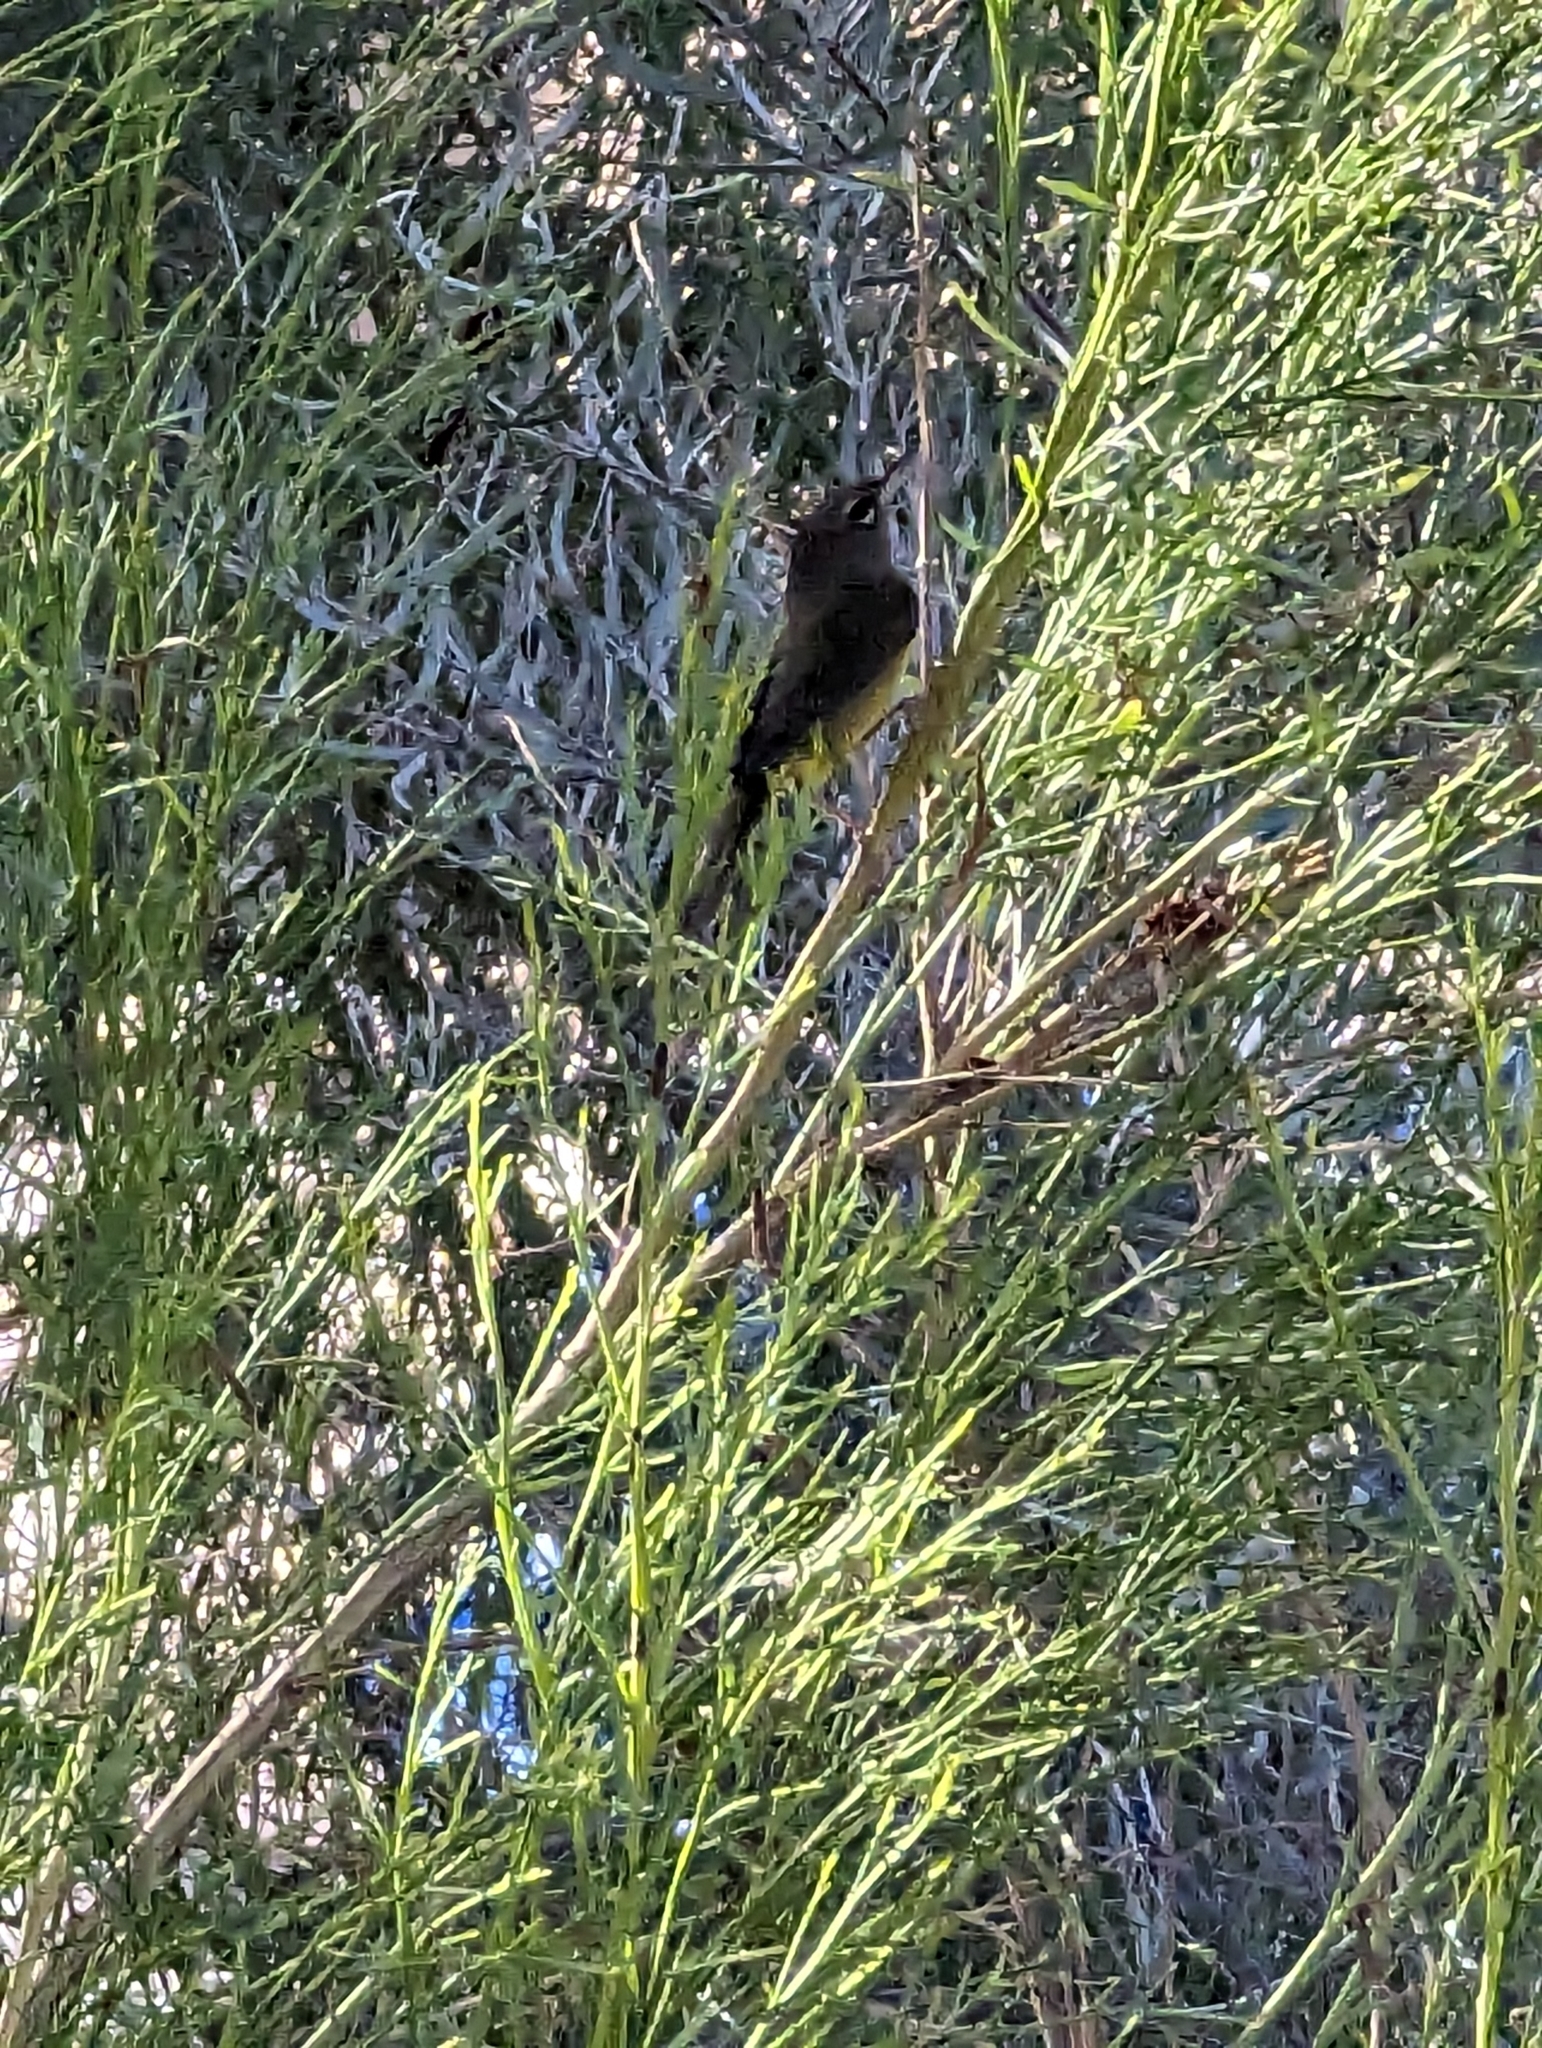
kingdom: Animalia
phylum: Chordata
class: Aves
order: Passeriformes
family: Parulidae
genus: Geothlypis
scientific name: Geothlypis tolmiei
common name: Macgillivray's warbler
